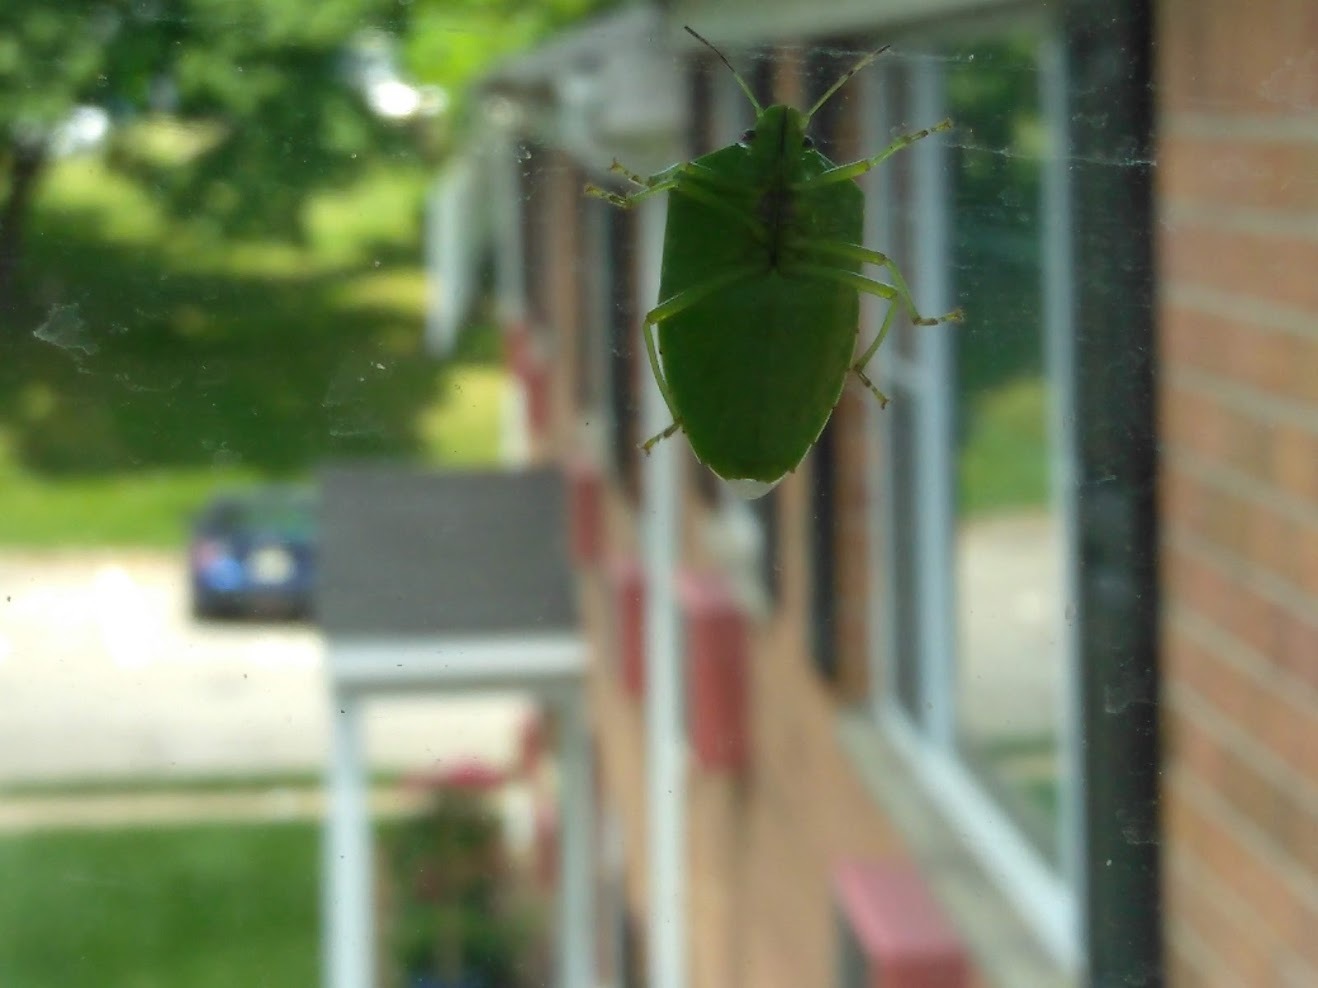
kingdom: Animalia
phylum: Arthropoda
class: Insecta
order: Hemiptera
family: Pentatomidae
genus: Chinavia
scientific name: Chinavia hilaris
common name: Green stink bug
